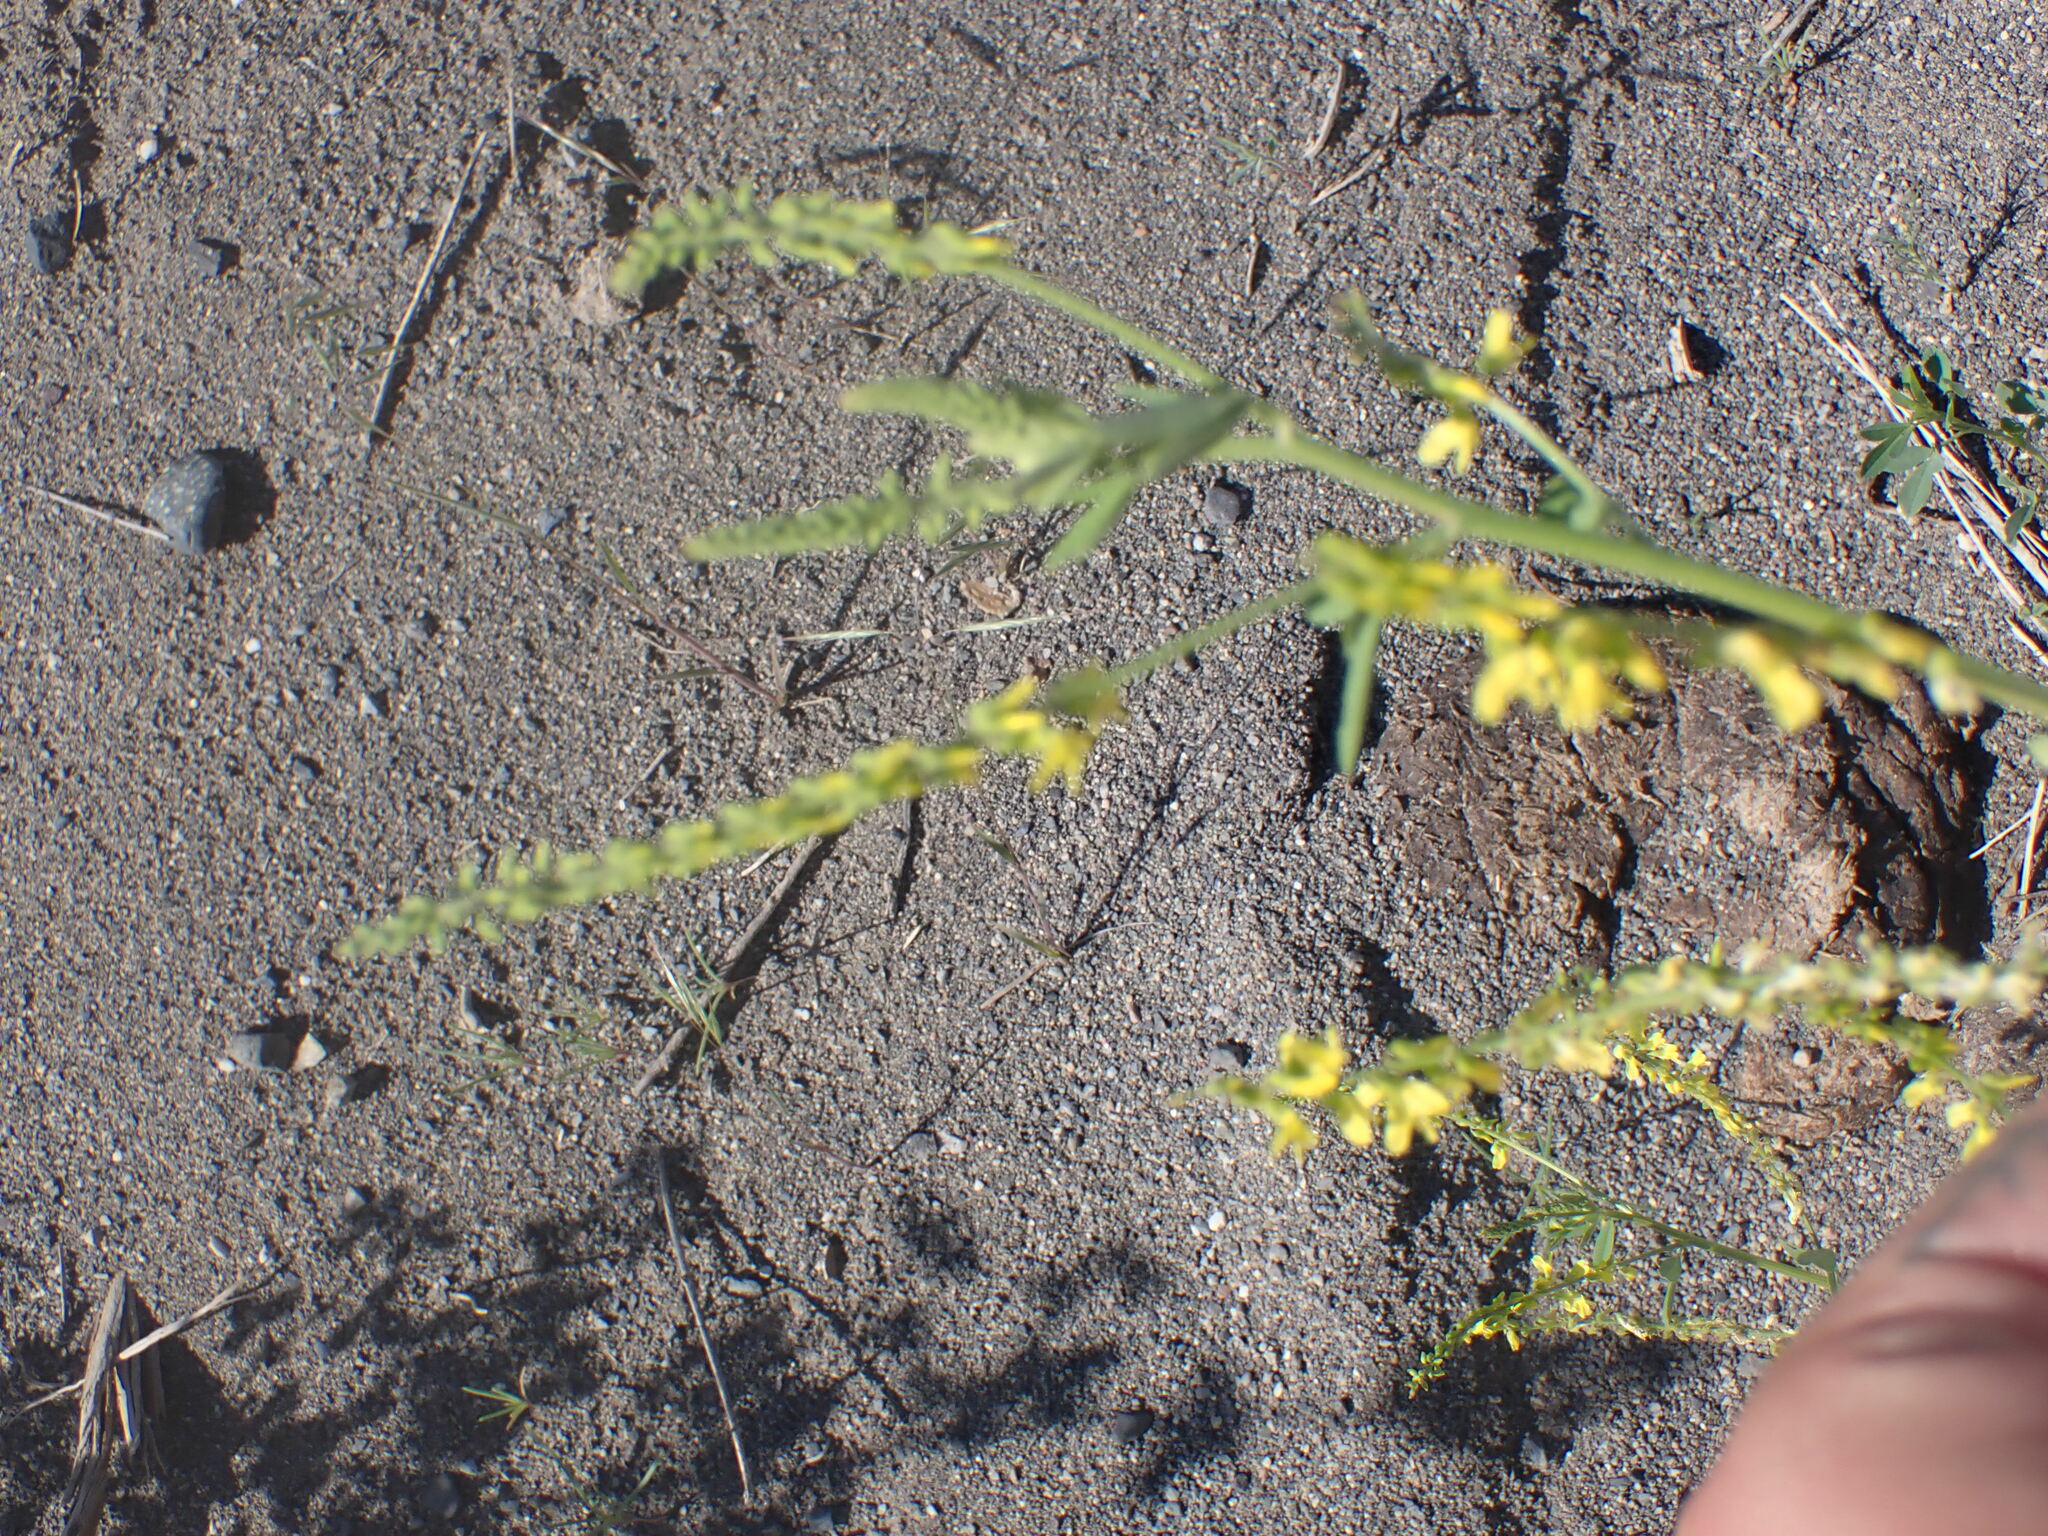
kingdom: Plantae
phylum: Tracheophyta
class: Magnoliopsida
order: Fabales
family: Fabaceae
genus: Melilotus
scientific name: Melilotus officinalis
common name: Sweetclover
